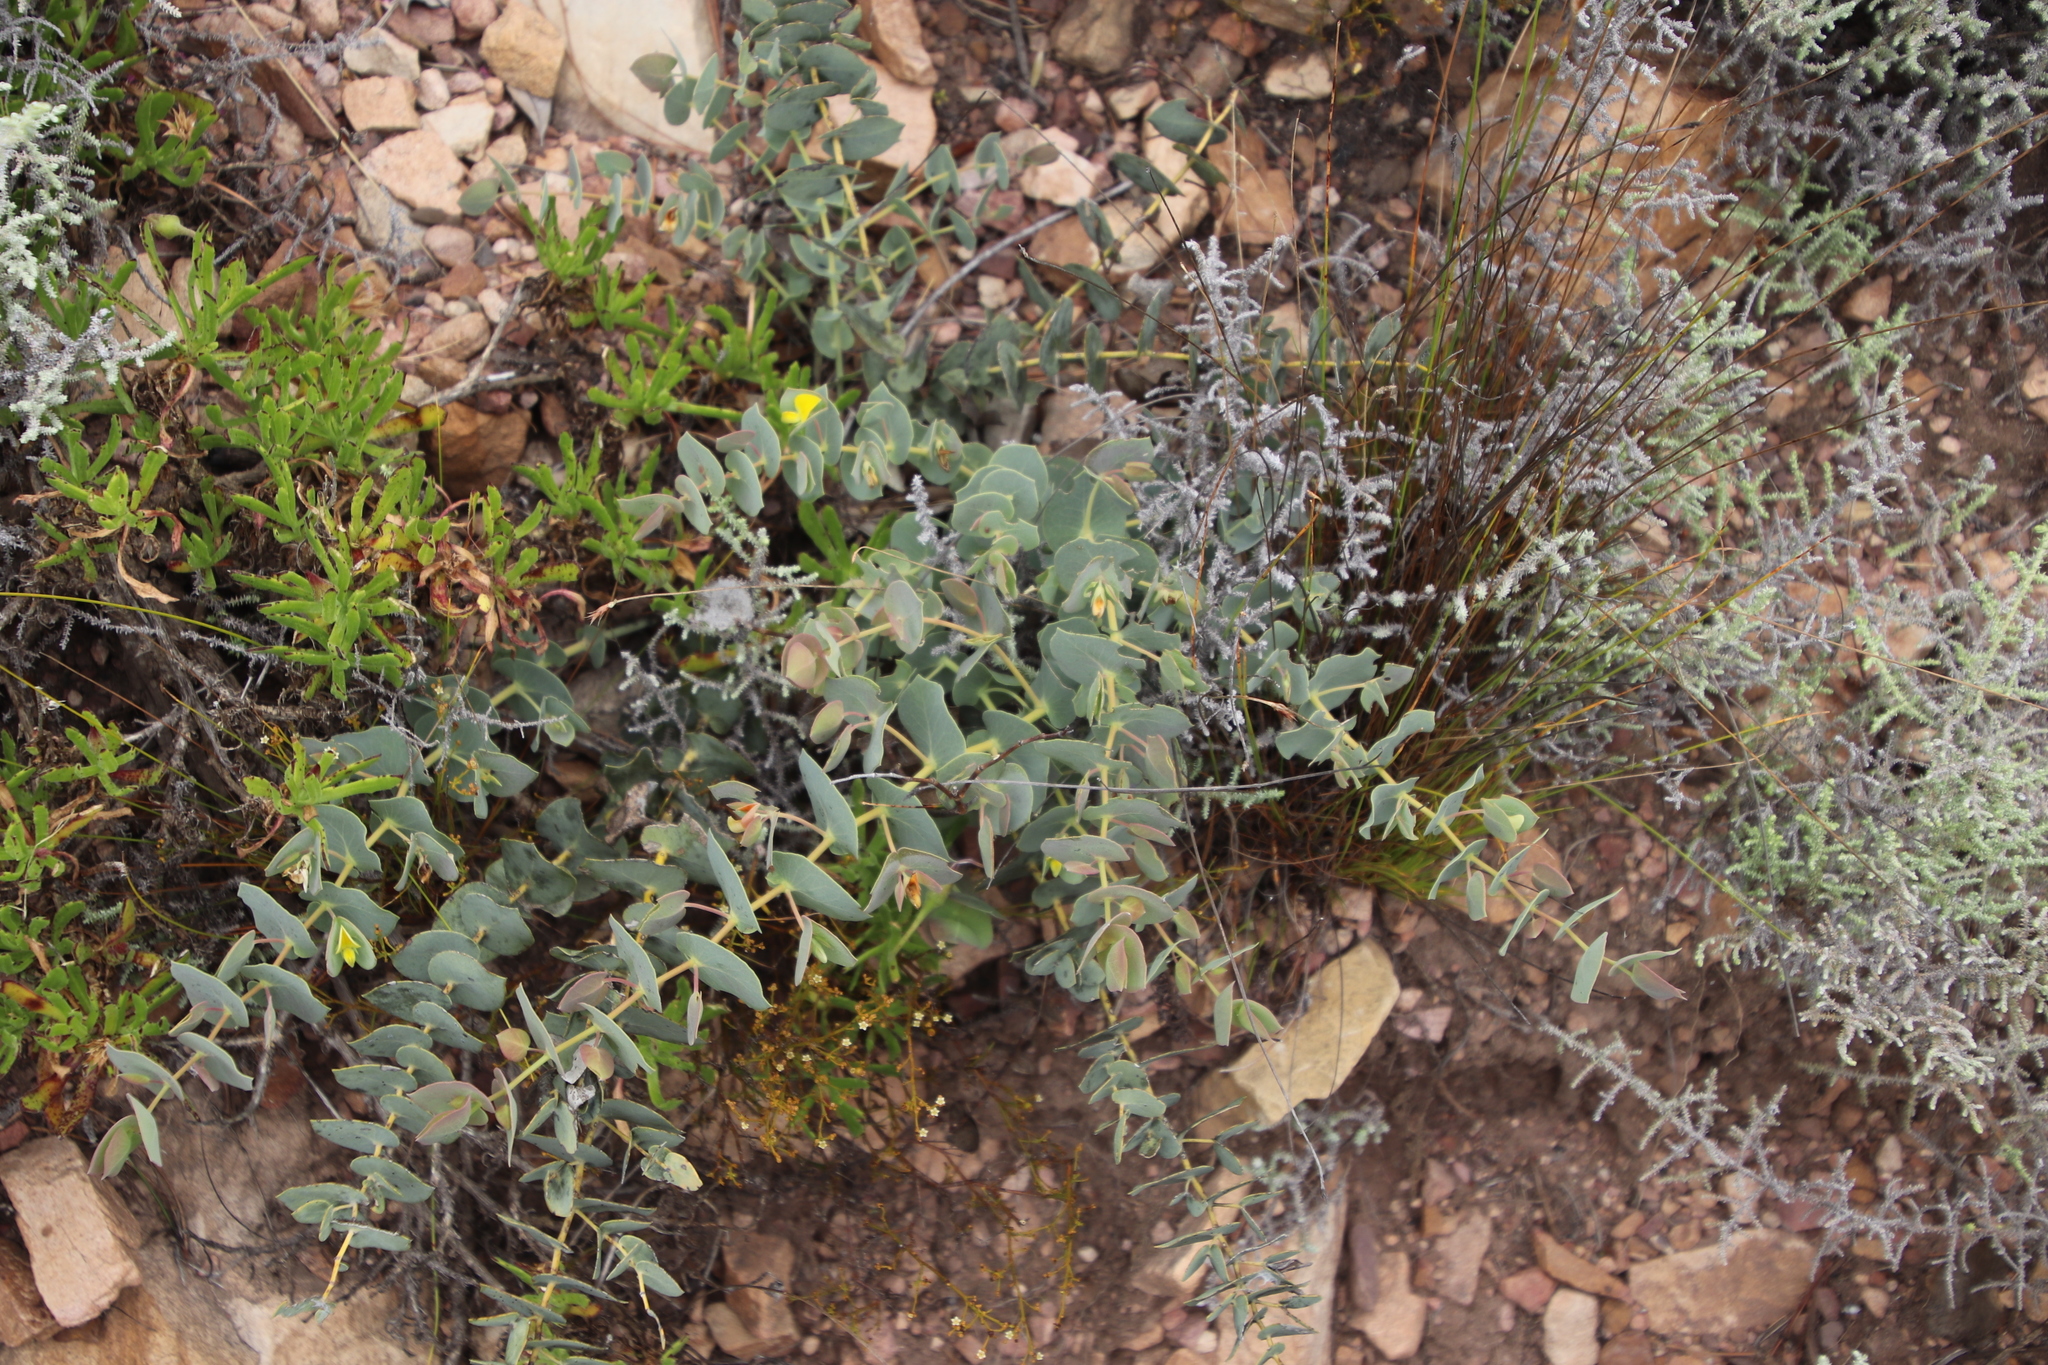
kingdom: Plantae
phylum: Tracheophyta
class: Magnoliopsida
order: Fabales
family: Fabaceae
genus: Rafnia
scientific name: Rafnia acuminata
